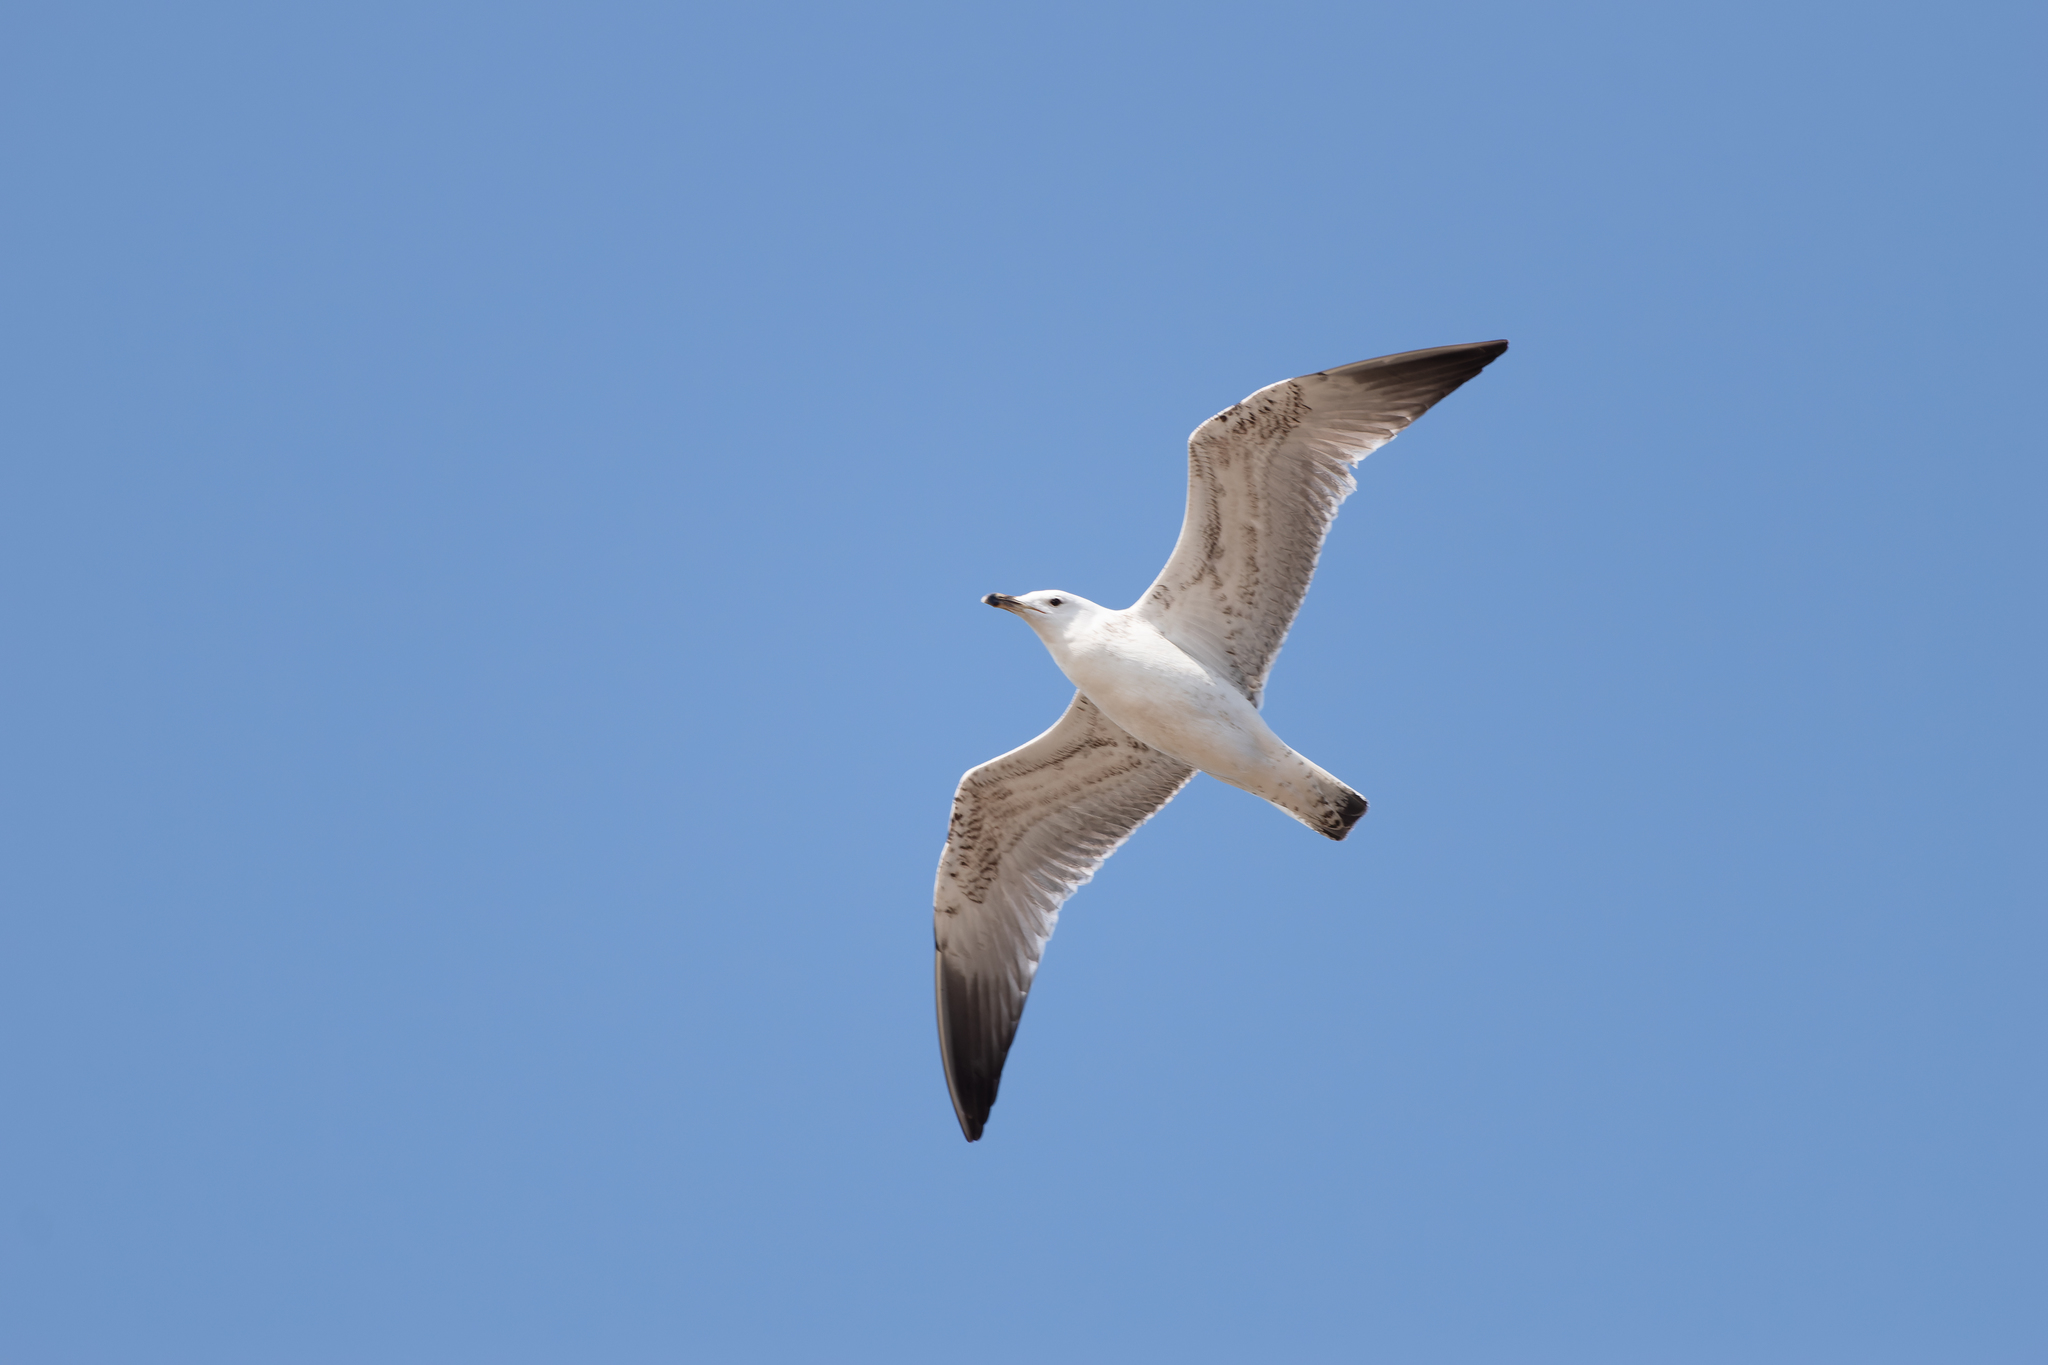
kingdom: Animalia
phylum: Chordata
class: Aves
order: Charadriiformes
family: Laridae
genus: Larus
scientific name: Larus cachinnans
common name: Caspian gull
